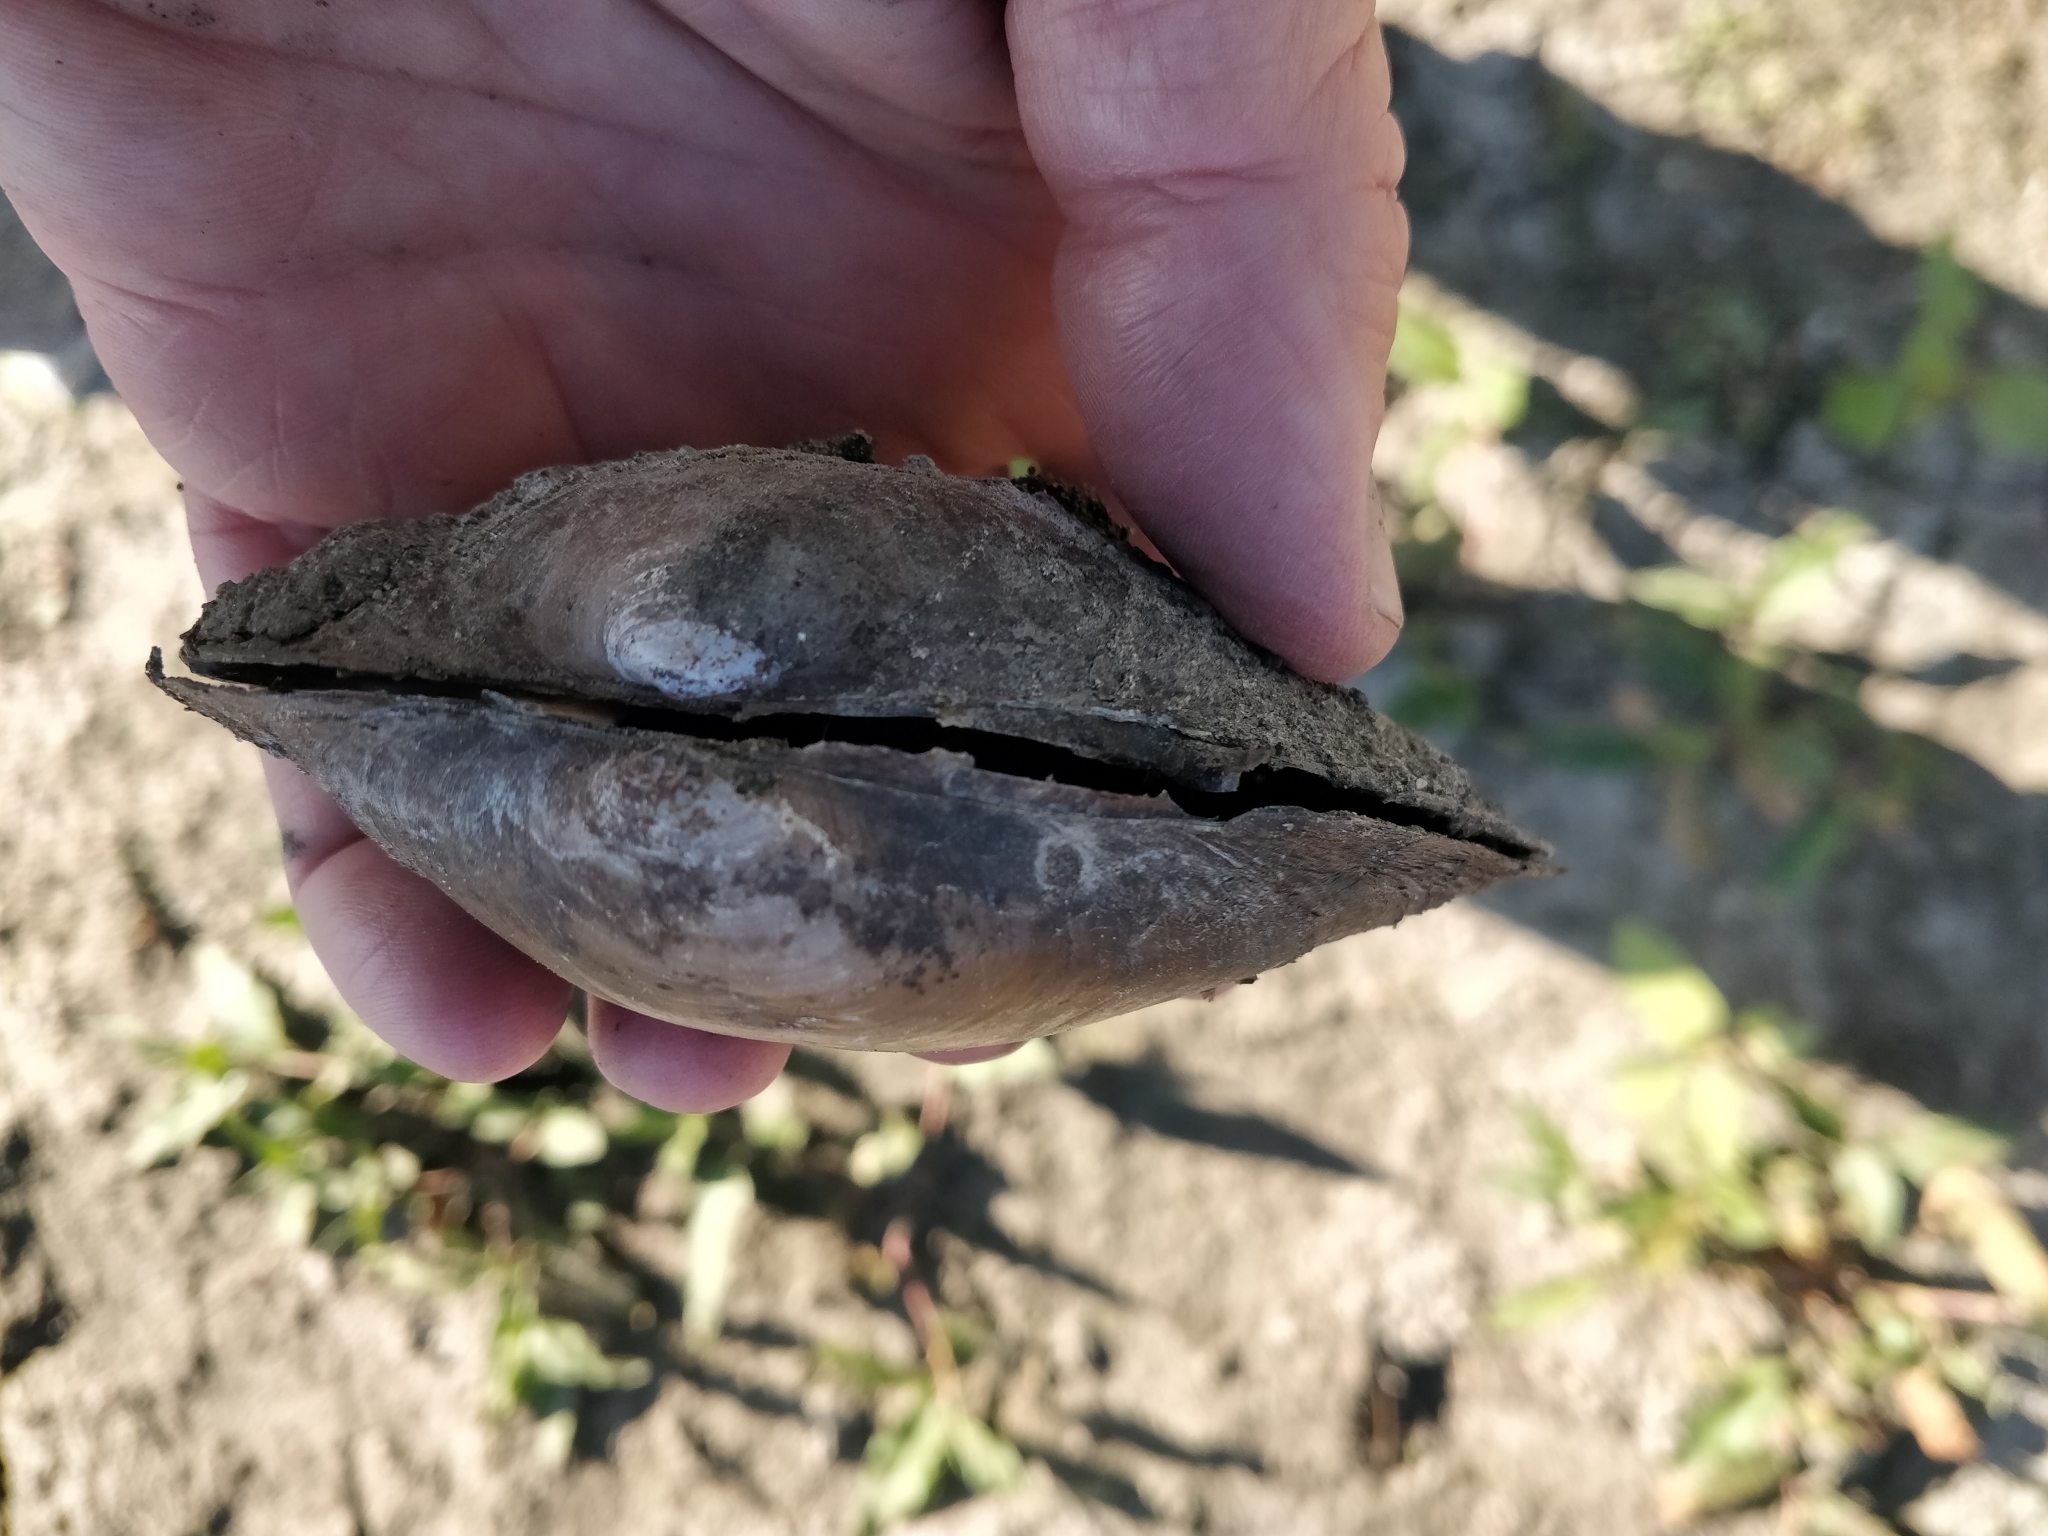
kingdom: Animalia
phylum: Mollusca
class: Bivalvia
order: Unionida
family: Unionidae
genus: Pyganodon
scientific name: Pyganodon grandis
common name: Giant floater
